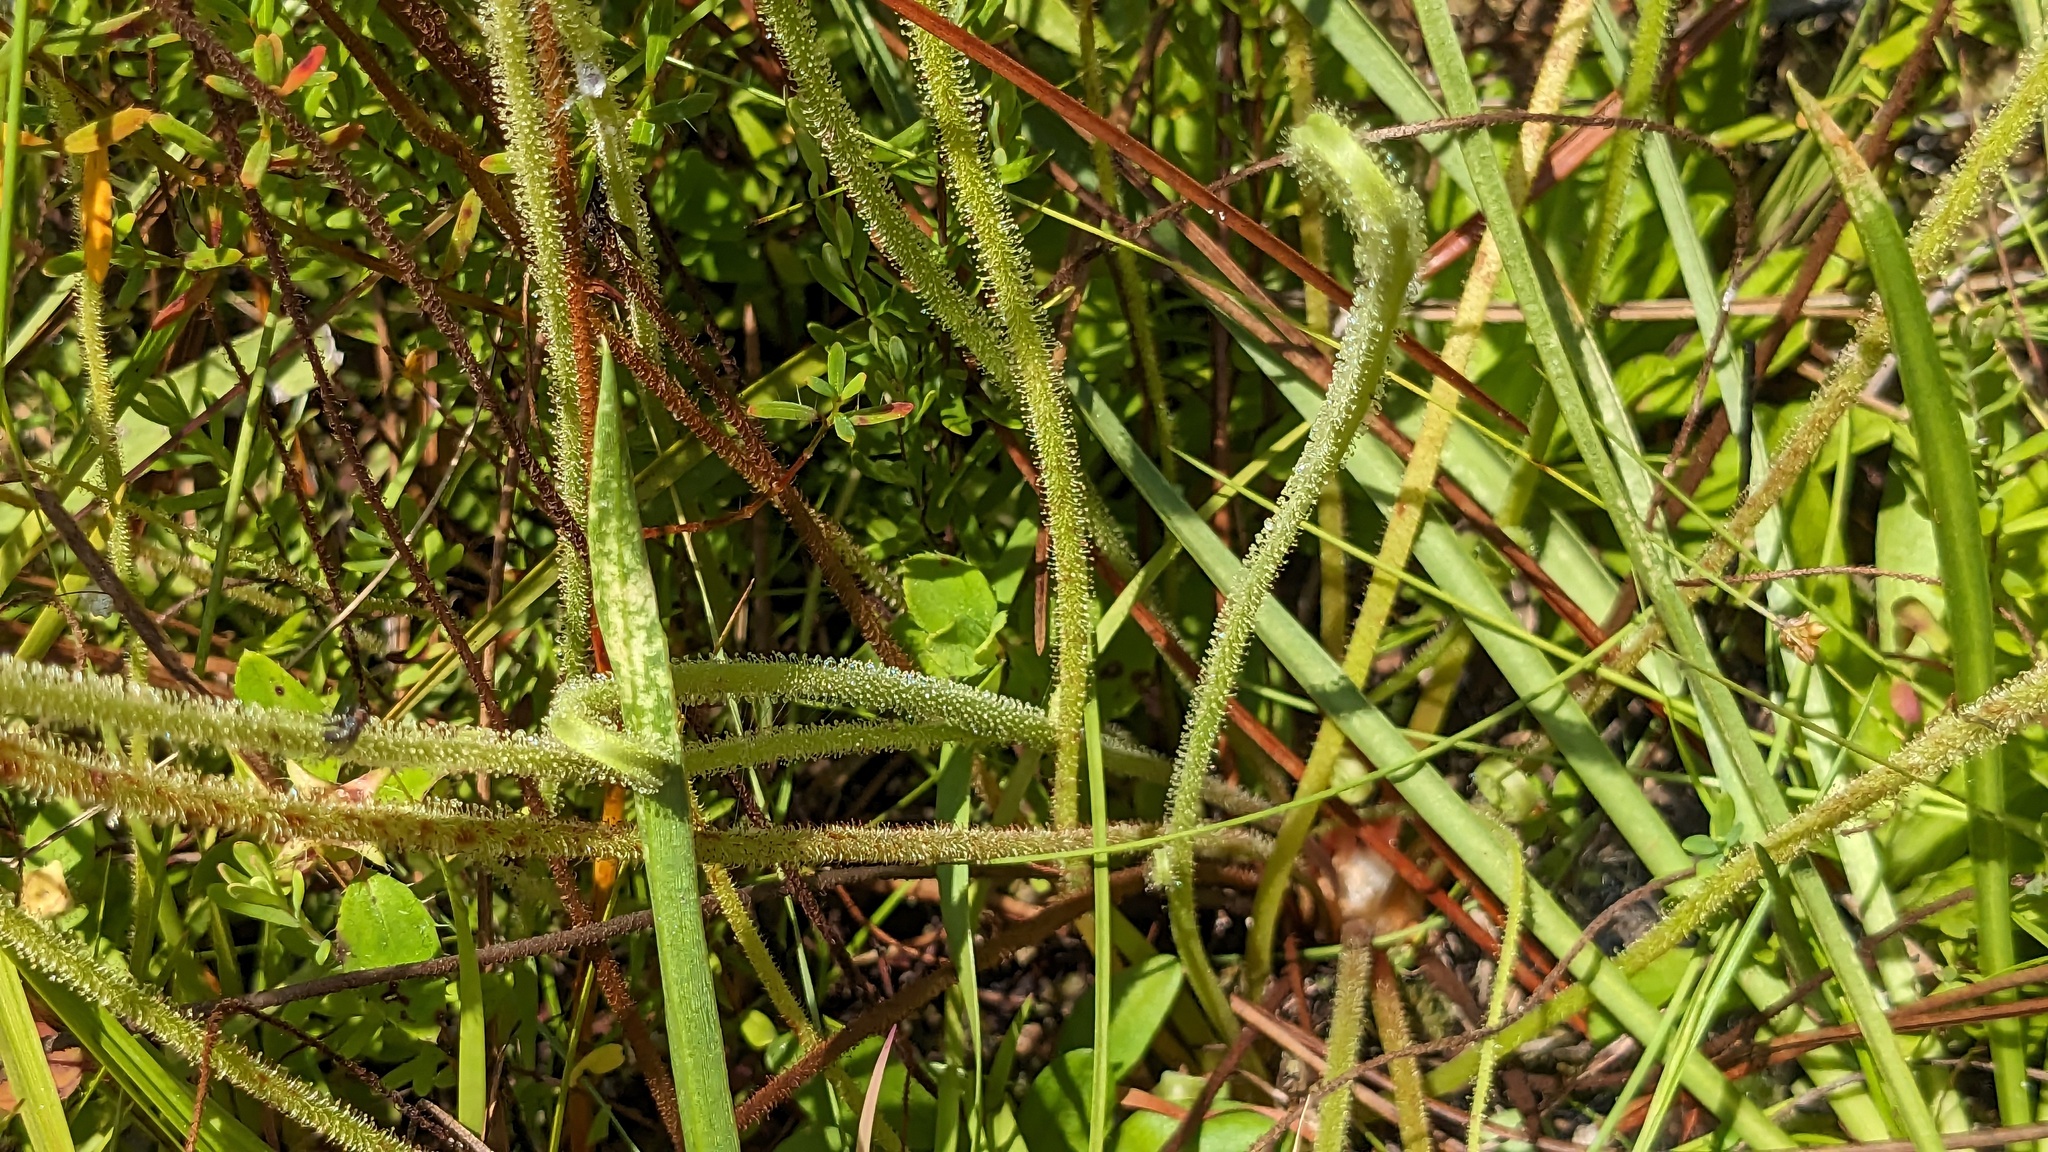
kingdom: Plantae
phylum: Tracheophyta
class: Magnoliopsida
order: Caryophyllales
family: Droseraceae
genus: Drosera
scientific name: Drosera filiformis
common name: Dew-thread
